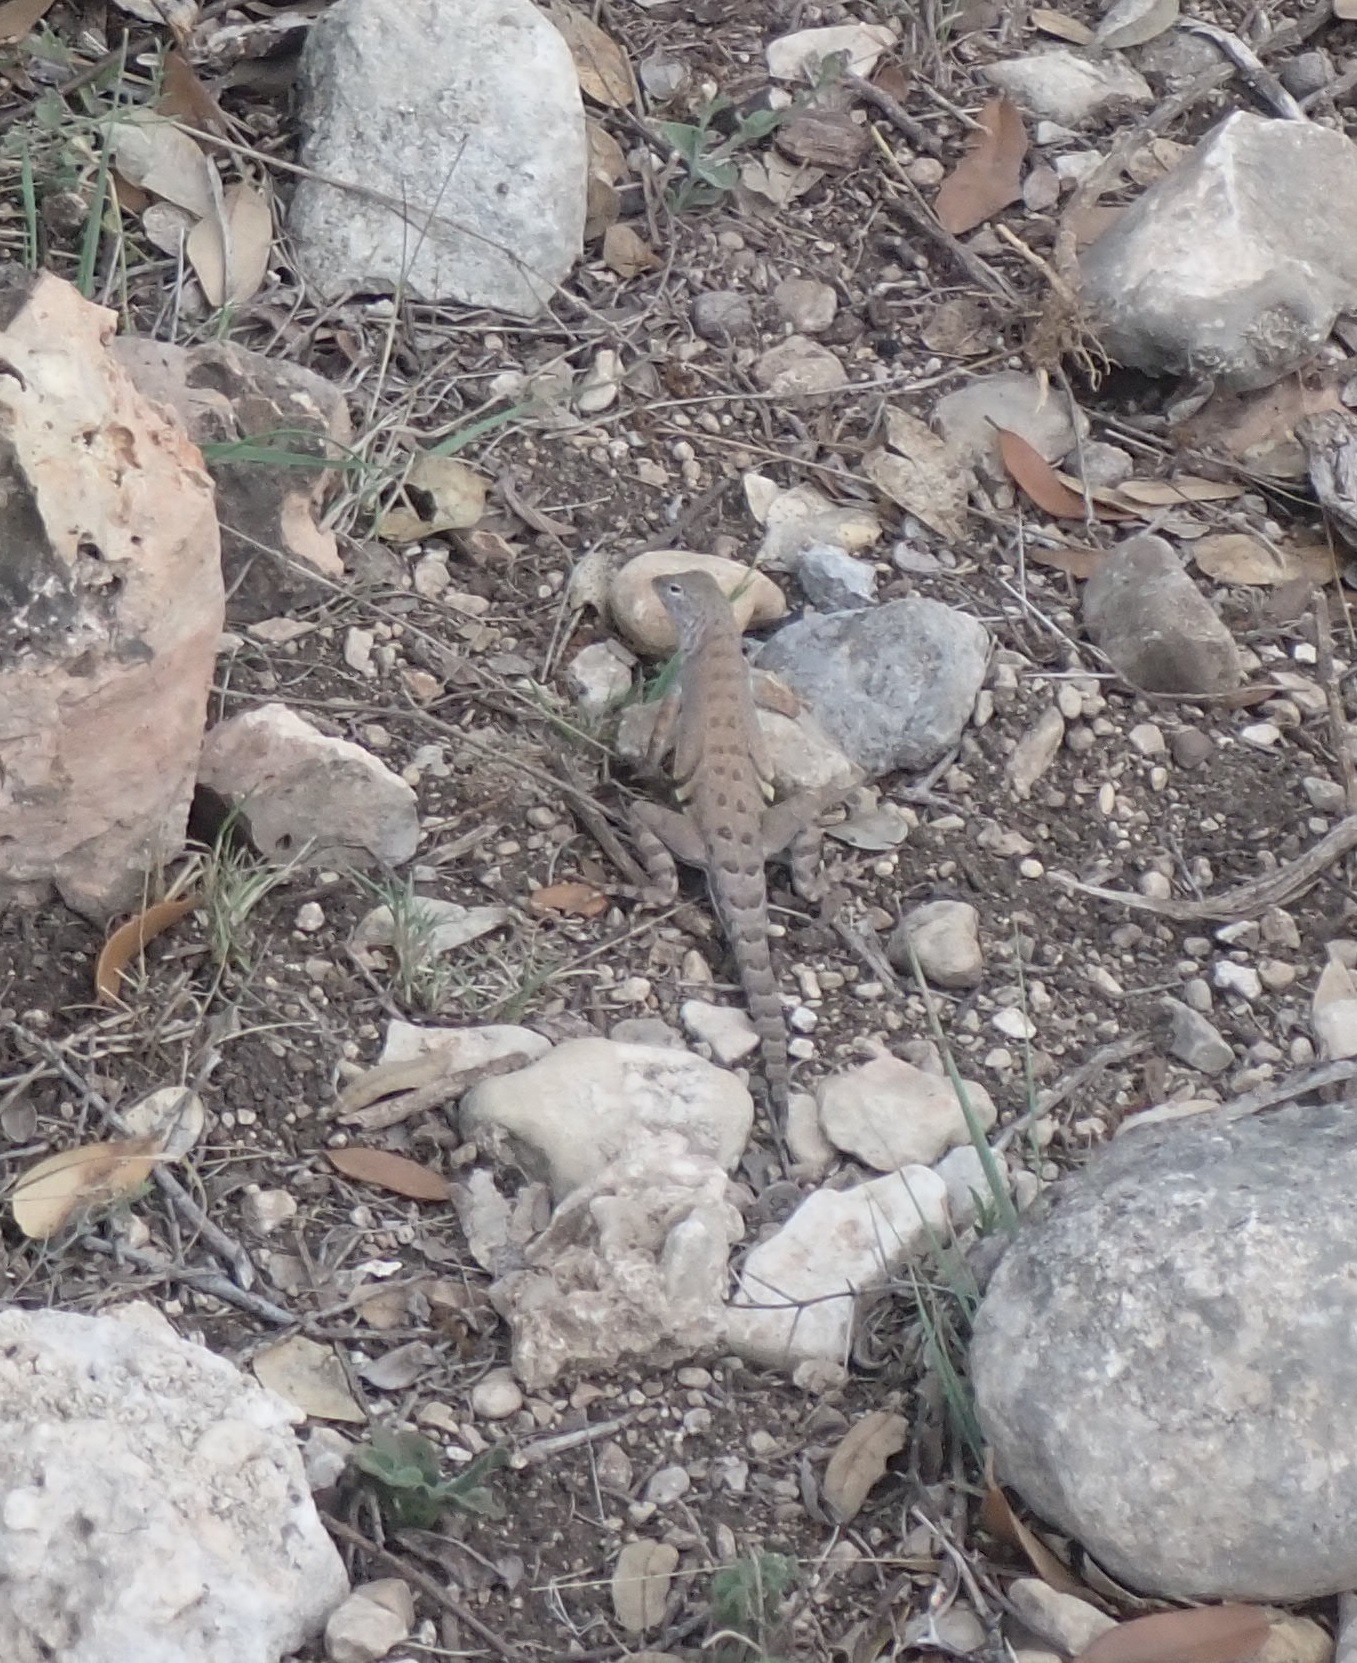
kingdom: Animalia
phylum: Chordata
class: Squamata
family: Phrynosomatidae
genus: Cophosaurus
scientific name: Cophosaurus texanus
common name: Greater earless lizard
